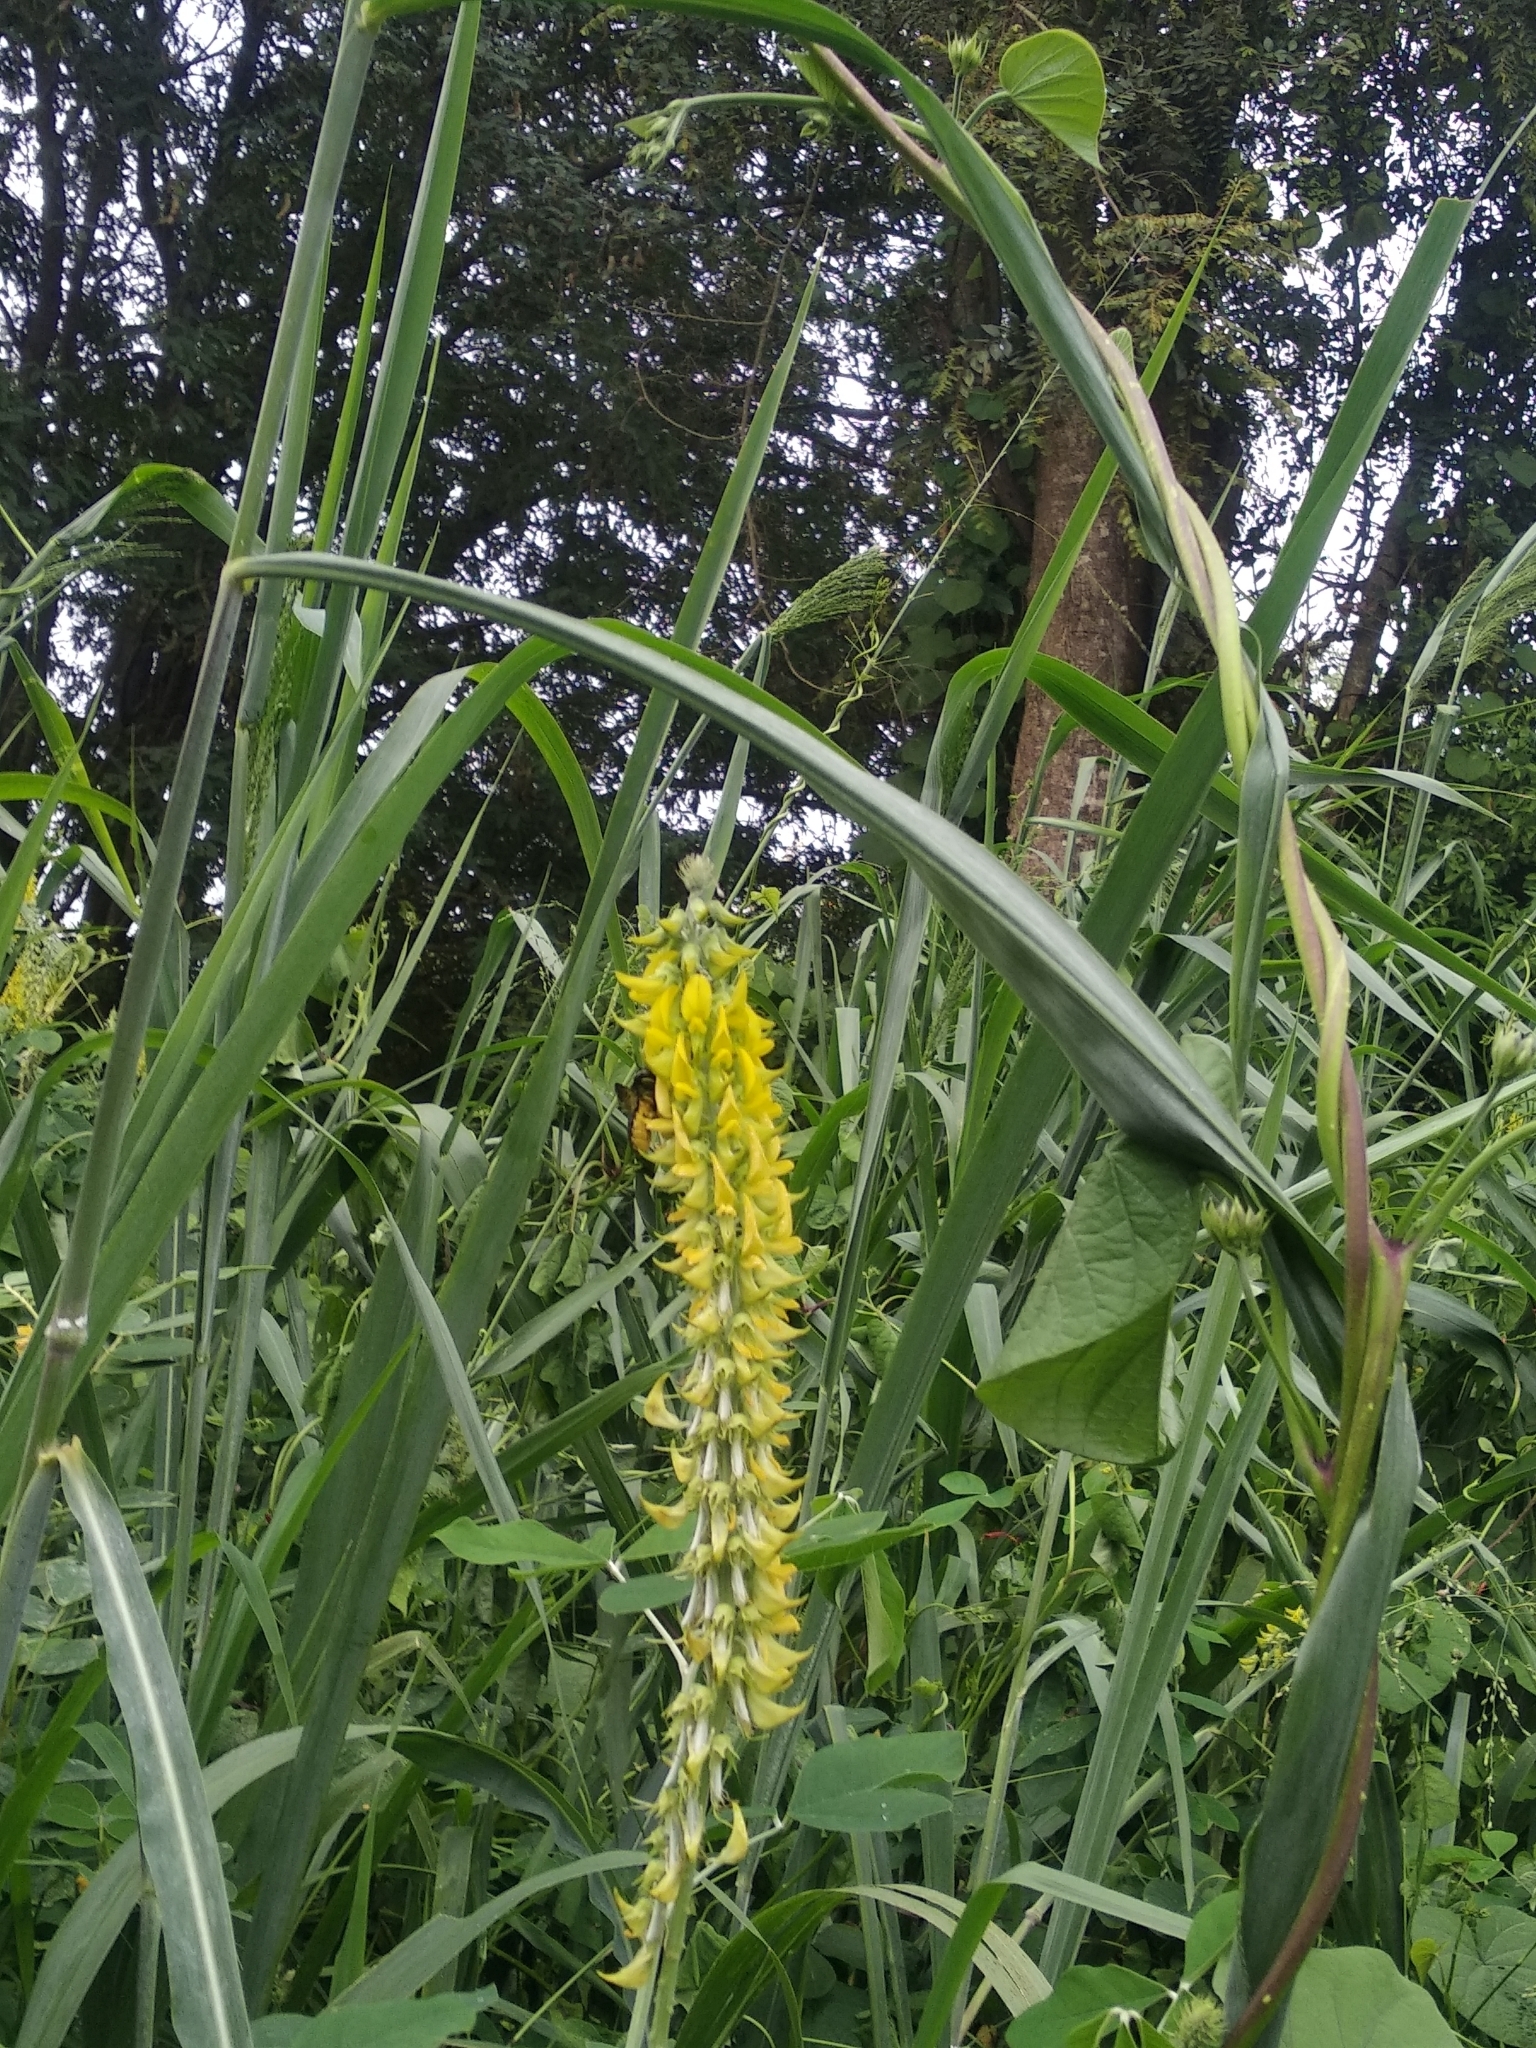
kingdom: Plantae
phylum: Tracheophyta
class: Magnoliopsida
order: Fabales
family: Fabaceae
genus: Crotalaria
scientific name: Crotalaria pallida
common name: Smooth rattlebox
